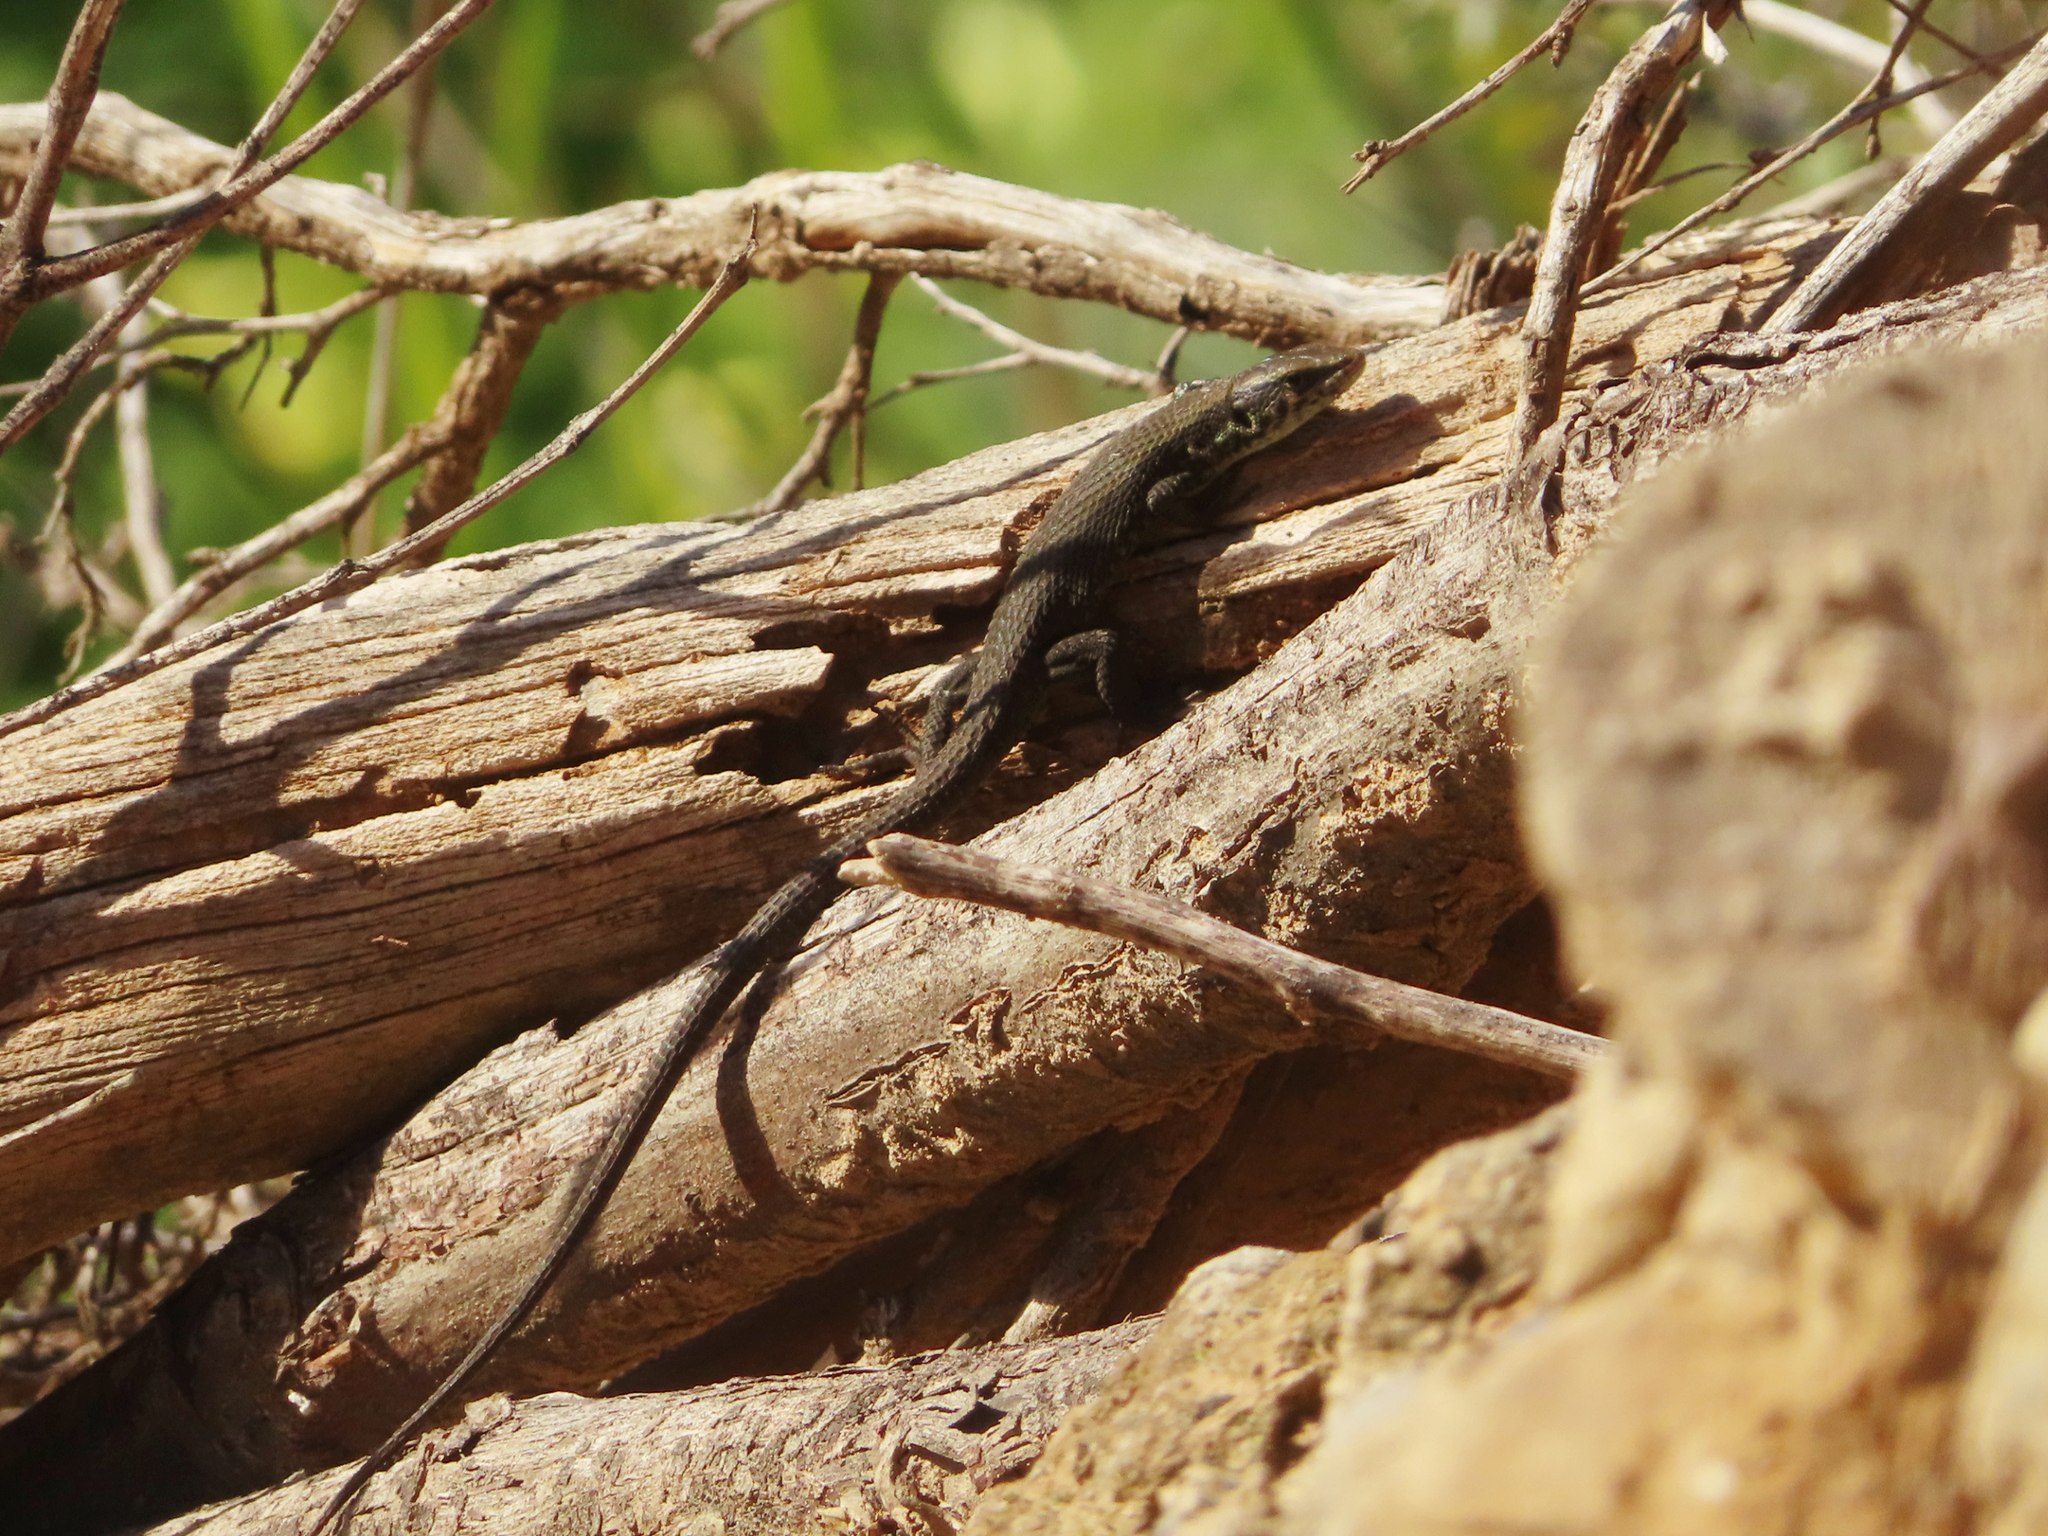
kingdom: Animalia
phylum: Chordata
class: Squamata
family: Lacertidae
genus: Algyroides
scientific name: Algyroides moreoticus
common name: Greek algyroides
